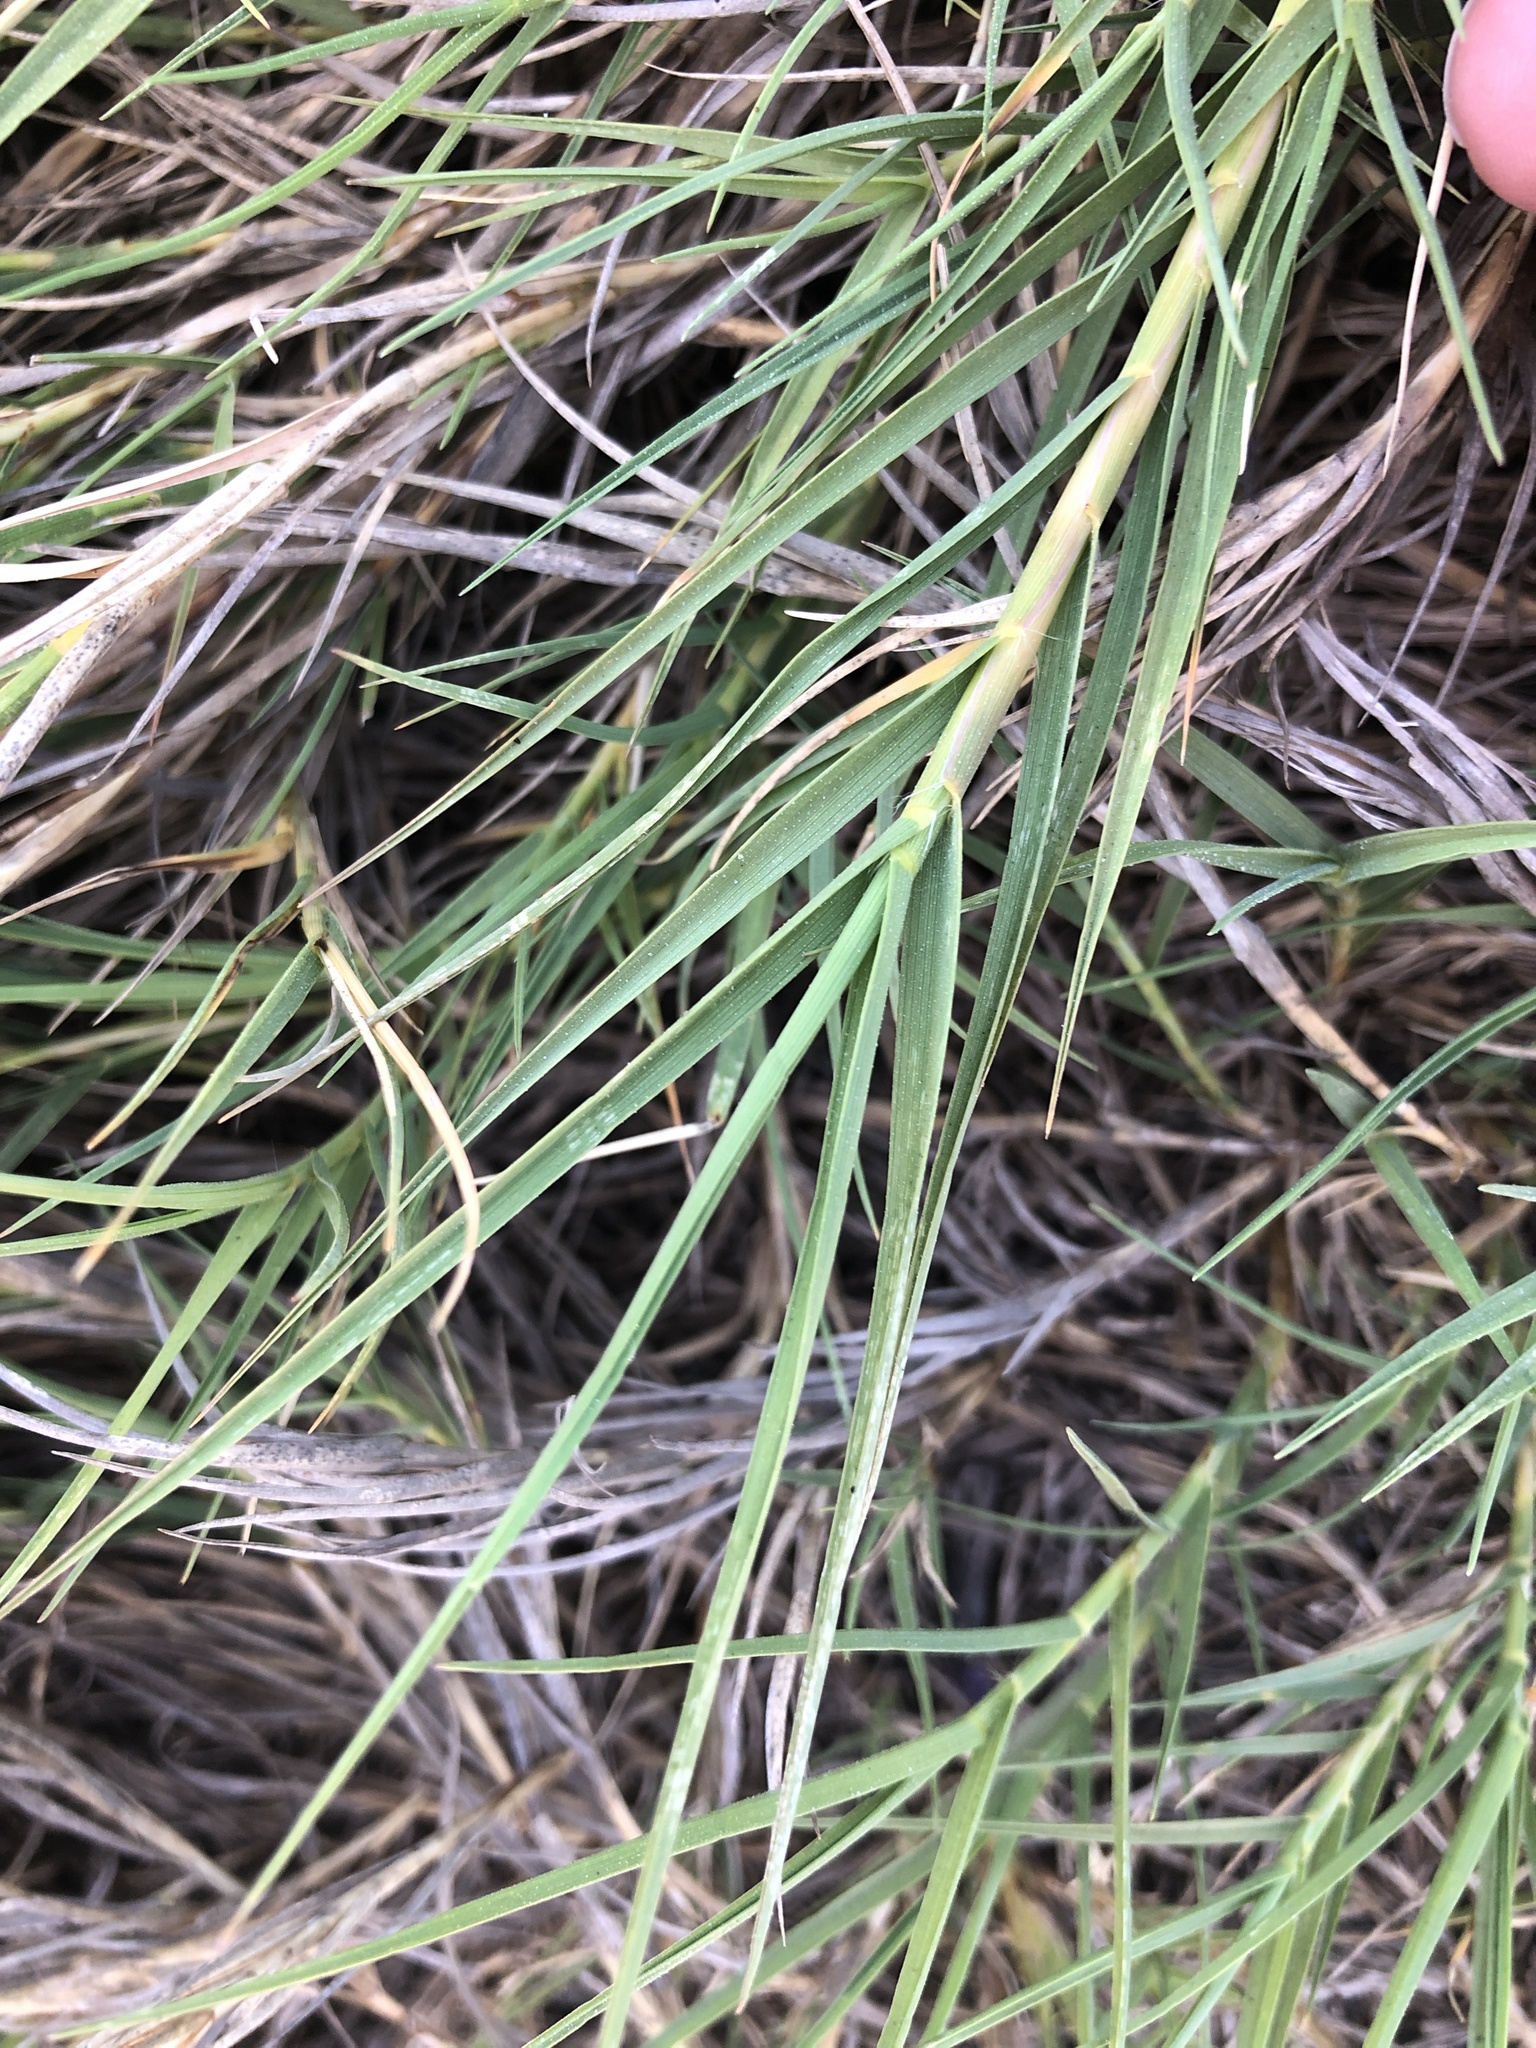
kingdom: Plantae
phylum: Tracheophyta
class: Liliopsida
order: Poales
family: Poaceae
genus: Distichlis
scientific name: Distichlis spicata
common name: Saltgrass
